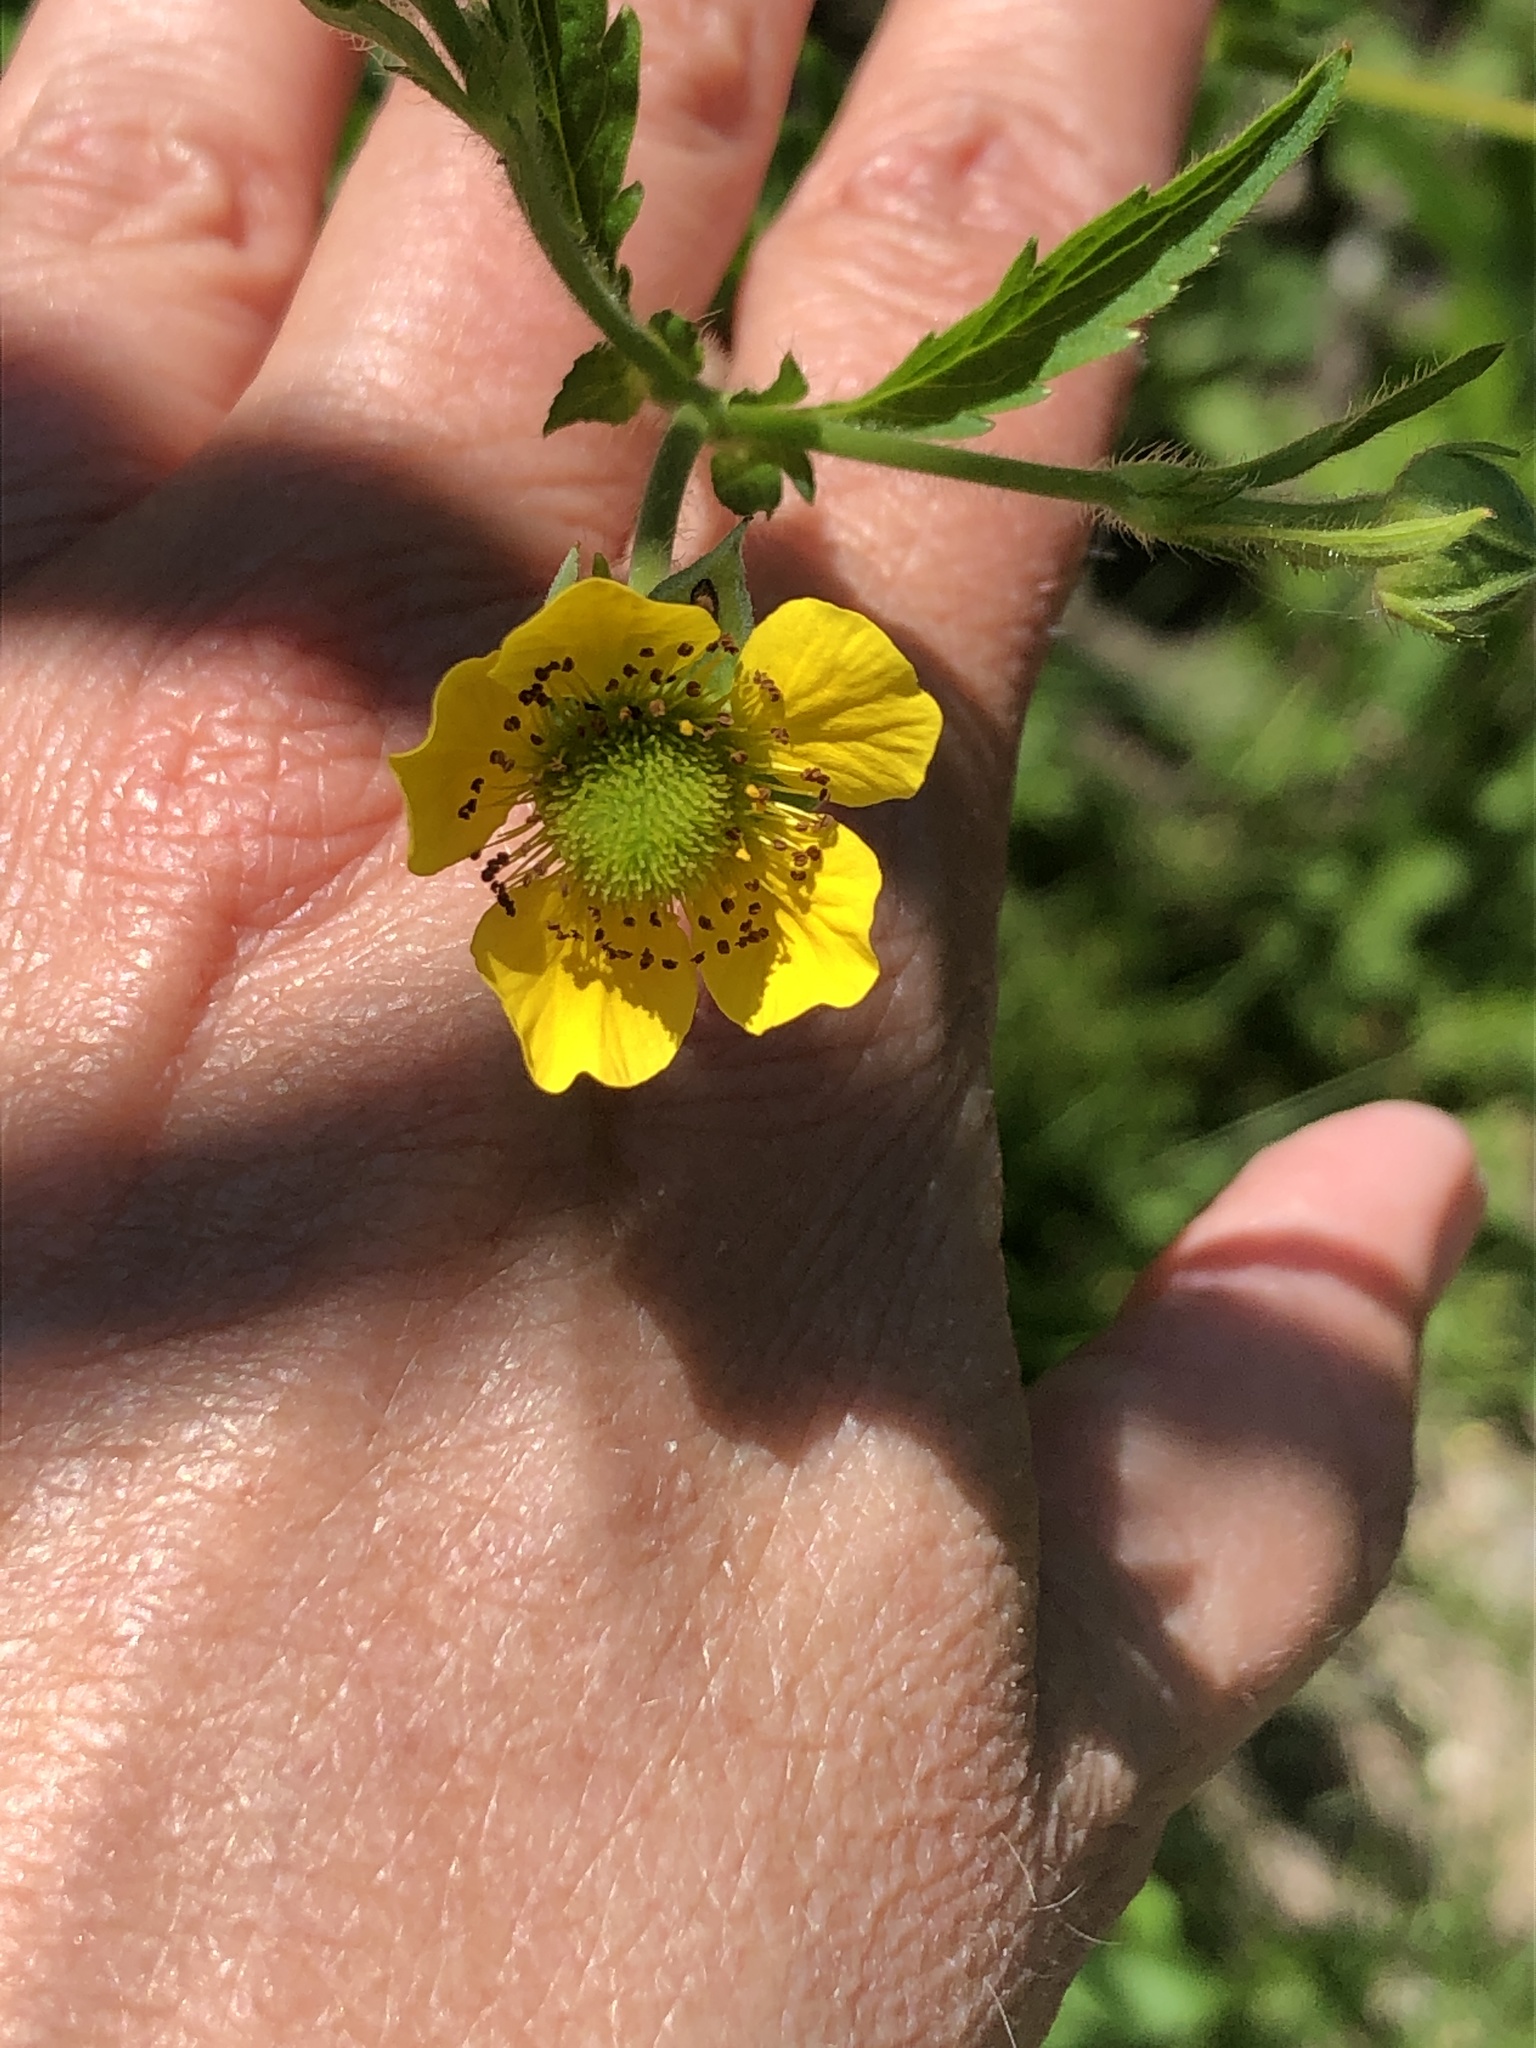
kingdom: Plantae
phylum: Tracheophyta
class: Magnoliopsida
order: Rosales
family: Rosaceae
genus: Geum
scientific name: Geum aleppicum
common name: Yellow avens
